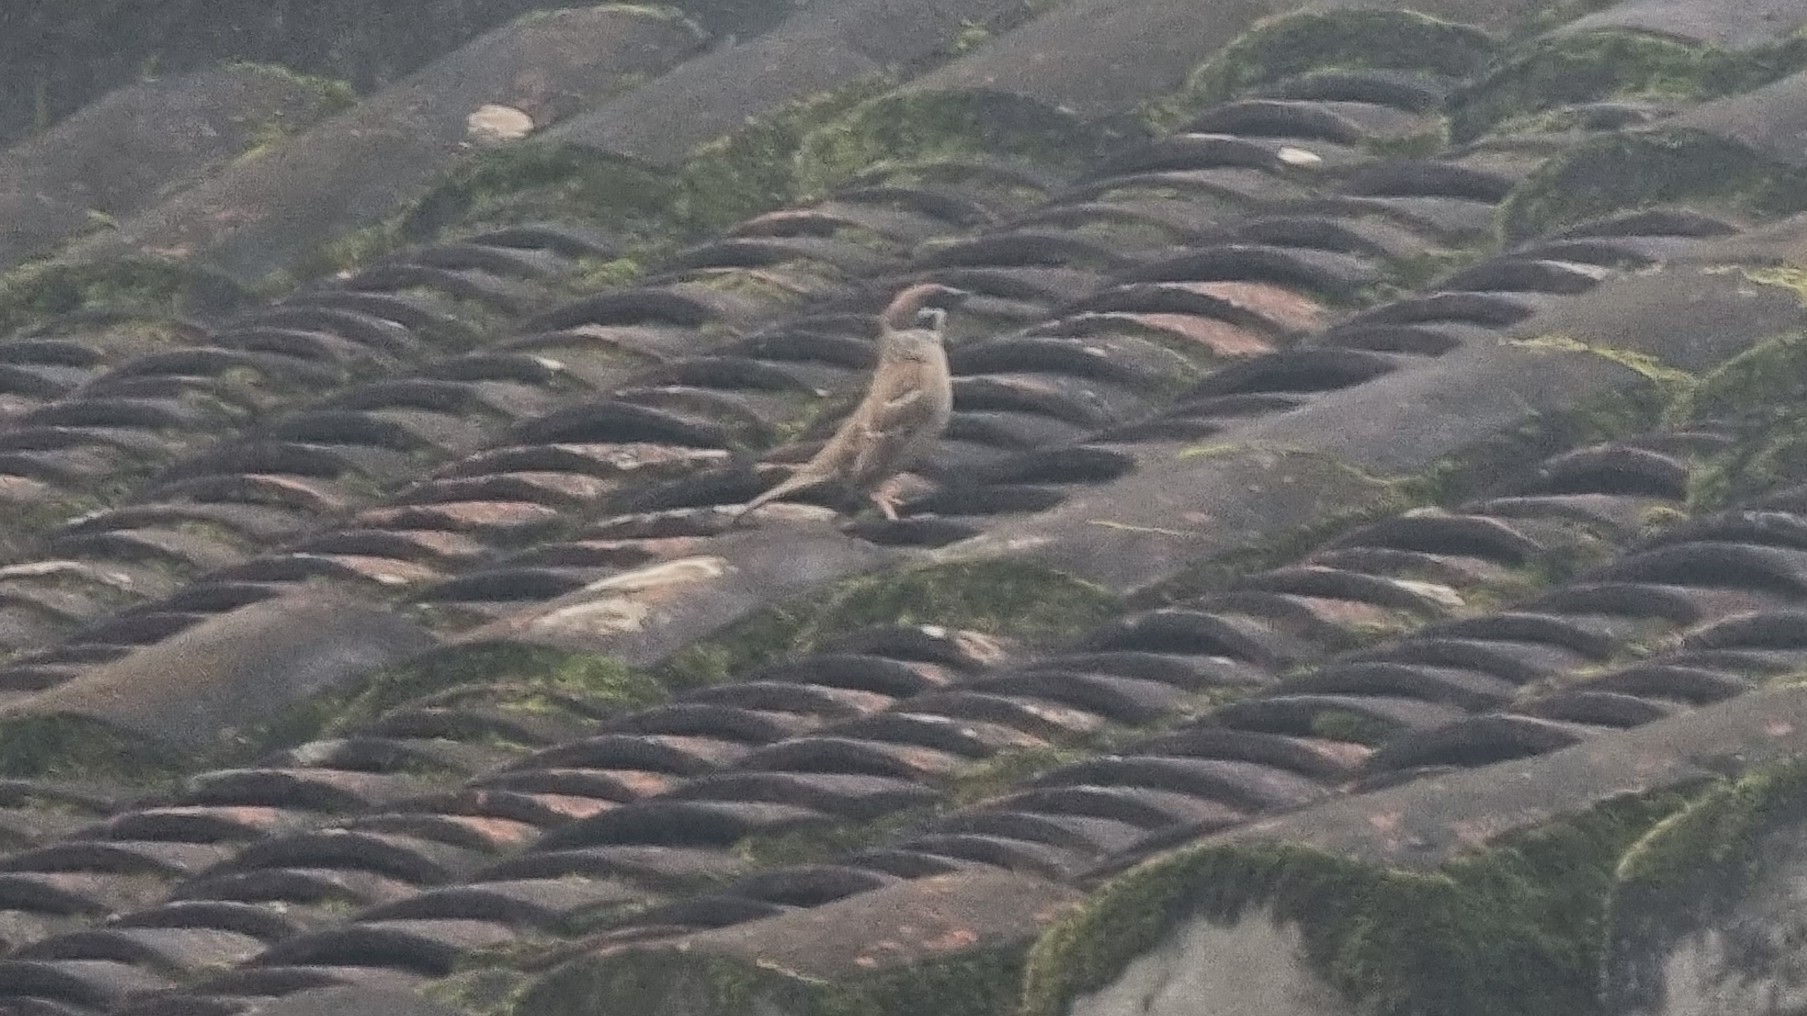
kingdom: Animalia
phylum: Chordata
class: Aves
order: Passeriformes
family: Passeridae
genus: Passer
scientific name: Passer montanus
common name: Eurasian tree sparrow
